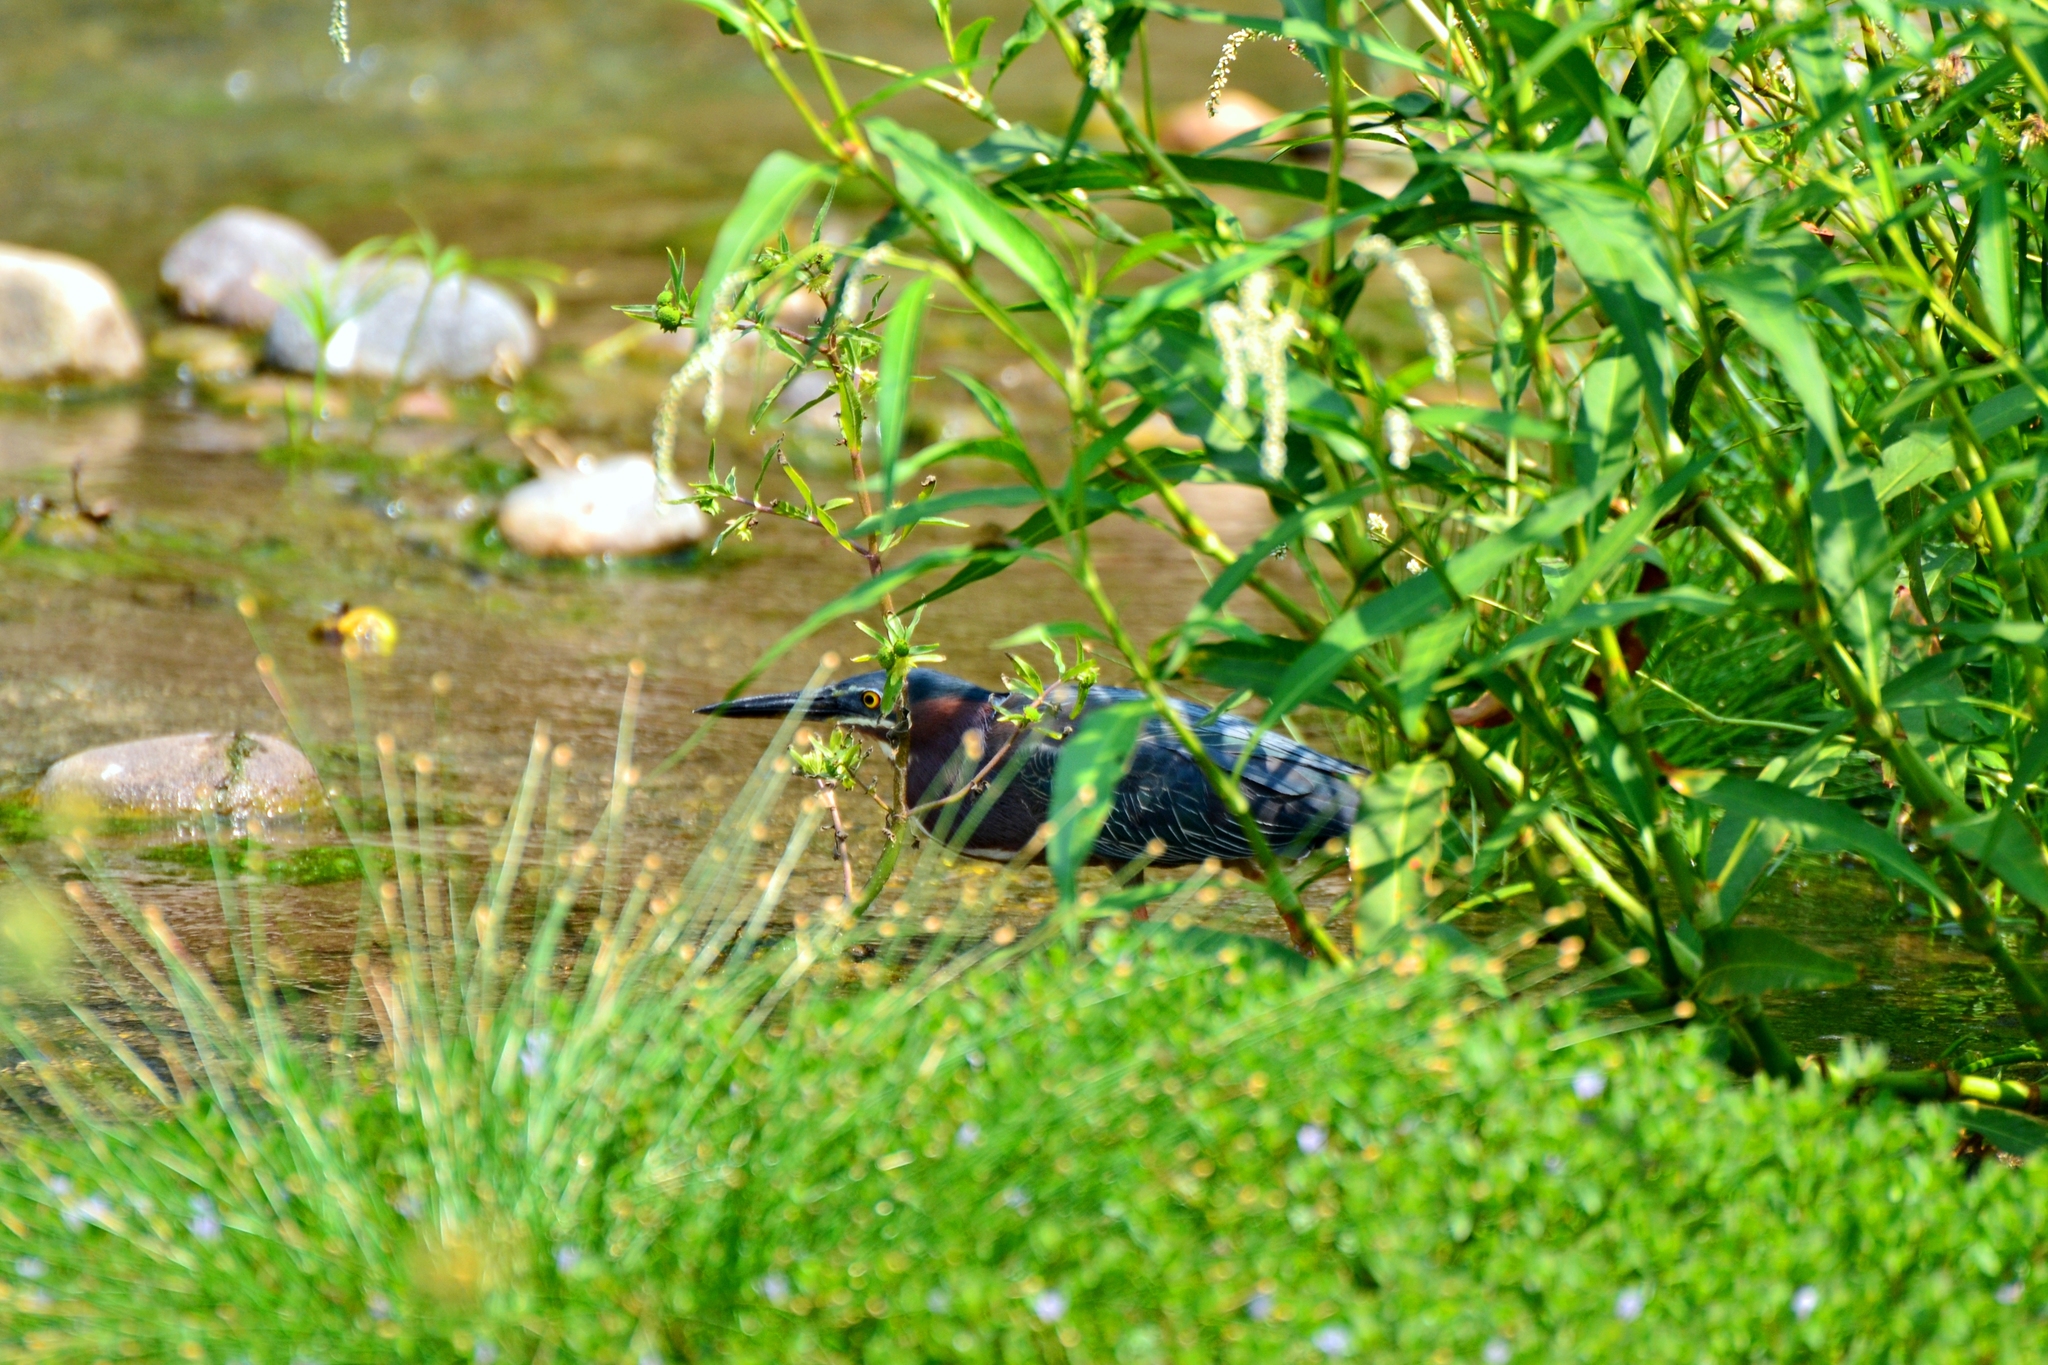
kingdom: Animalia
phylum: Chordata
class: Aves
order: Pelecaniformes
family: Ardeidae
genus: Butorides
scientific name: Butorides virescens
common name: Green heron
